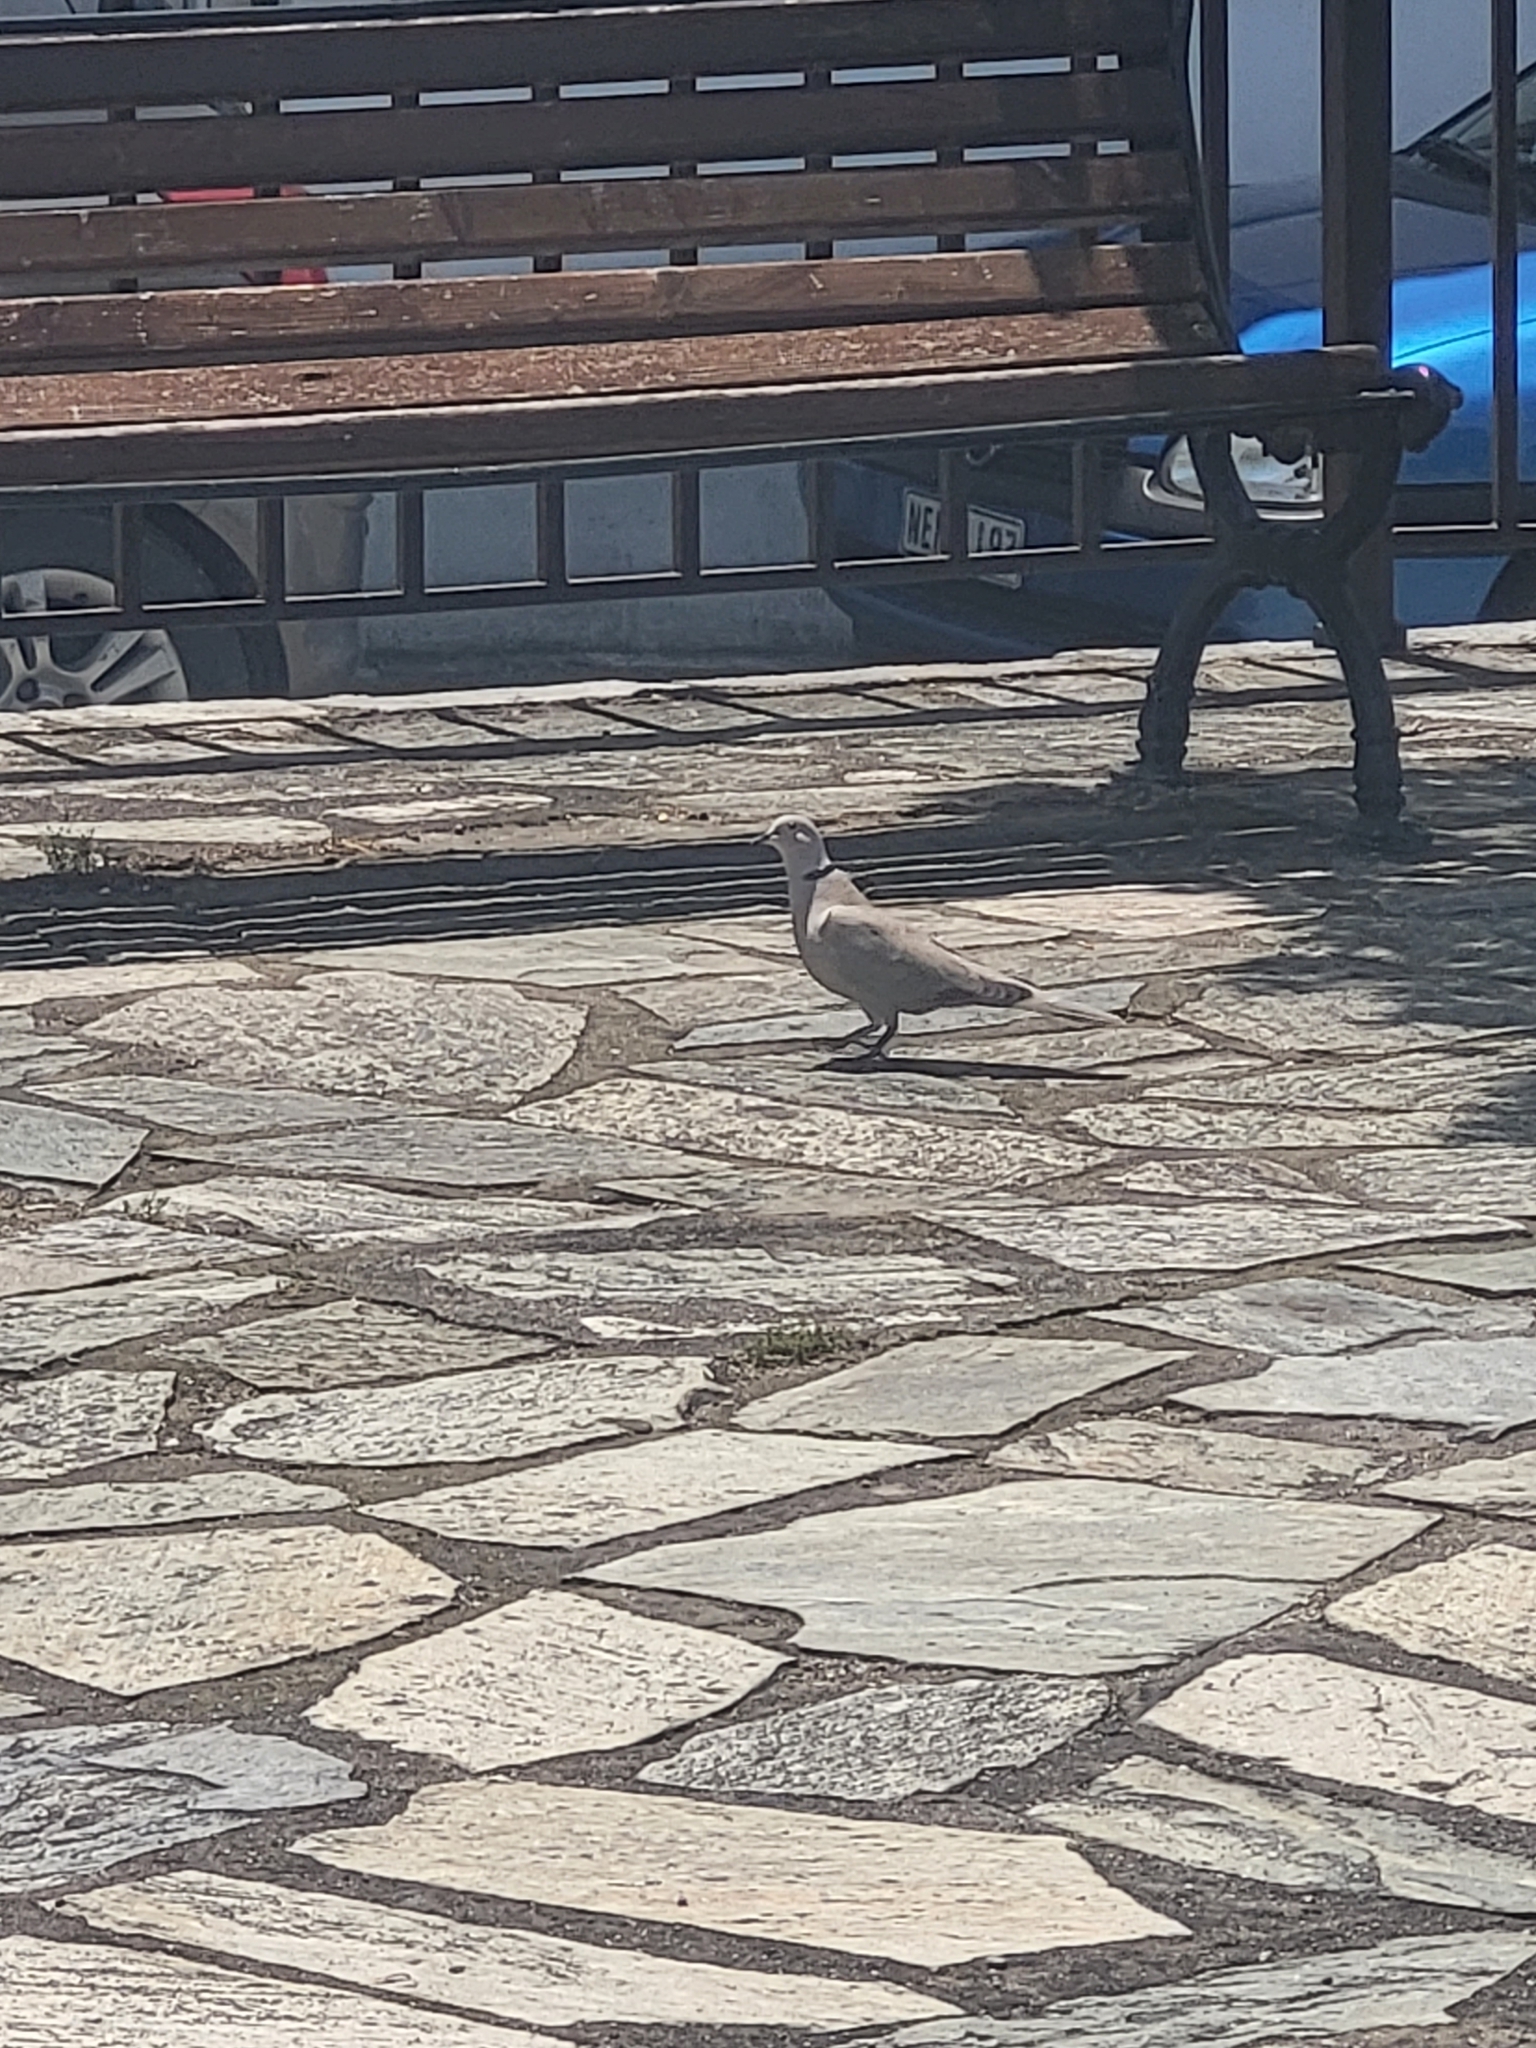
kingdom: Animalia
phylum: Chordata
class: Aves
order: Columbiformes
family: Columbidae
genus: Streptopelia
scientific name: Streptopelia decaocto
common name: Eurasian collared dove
